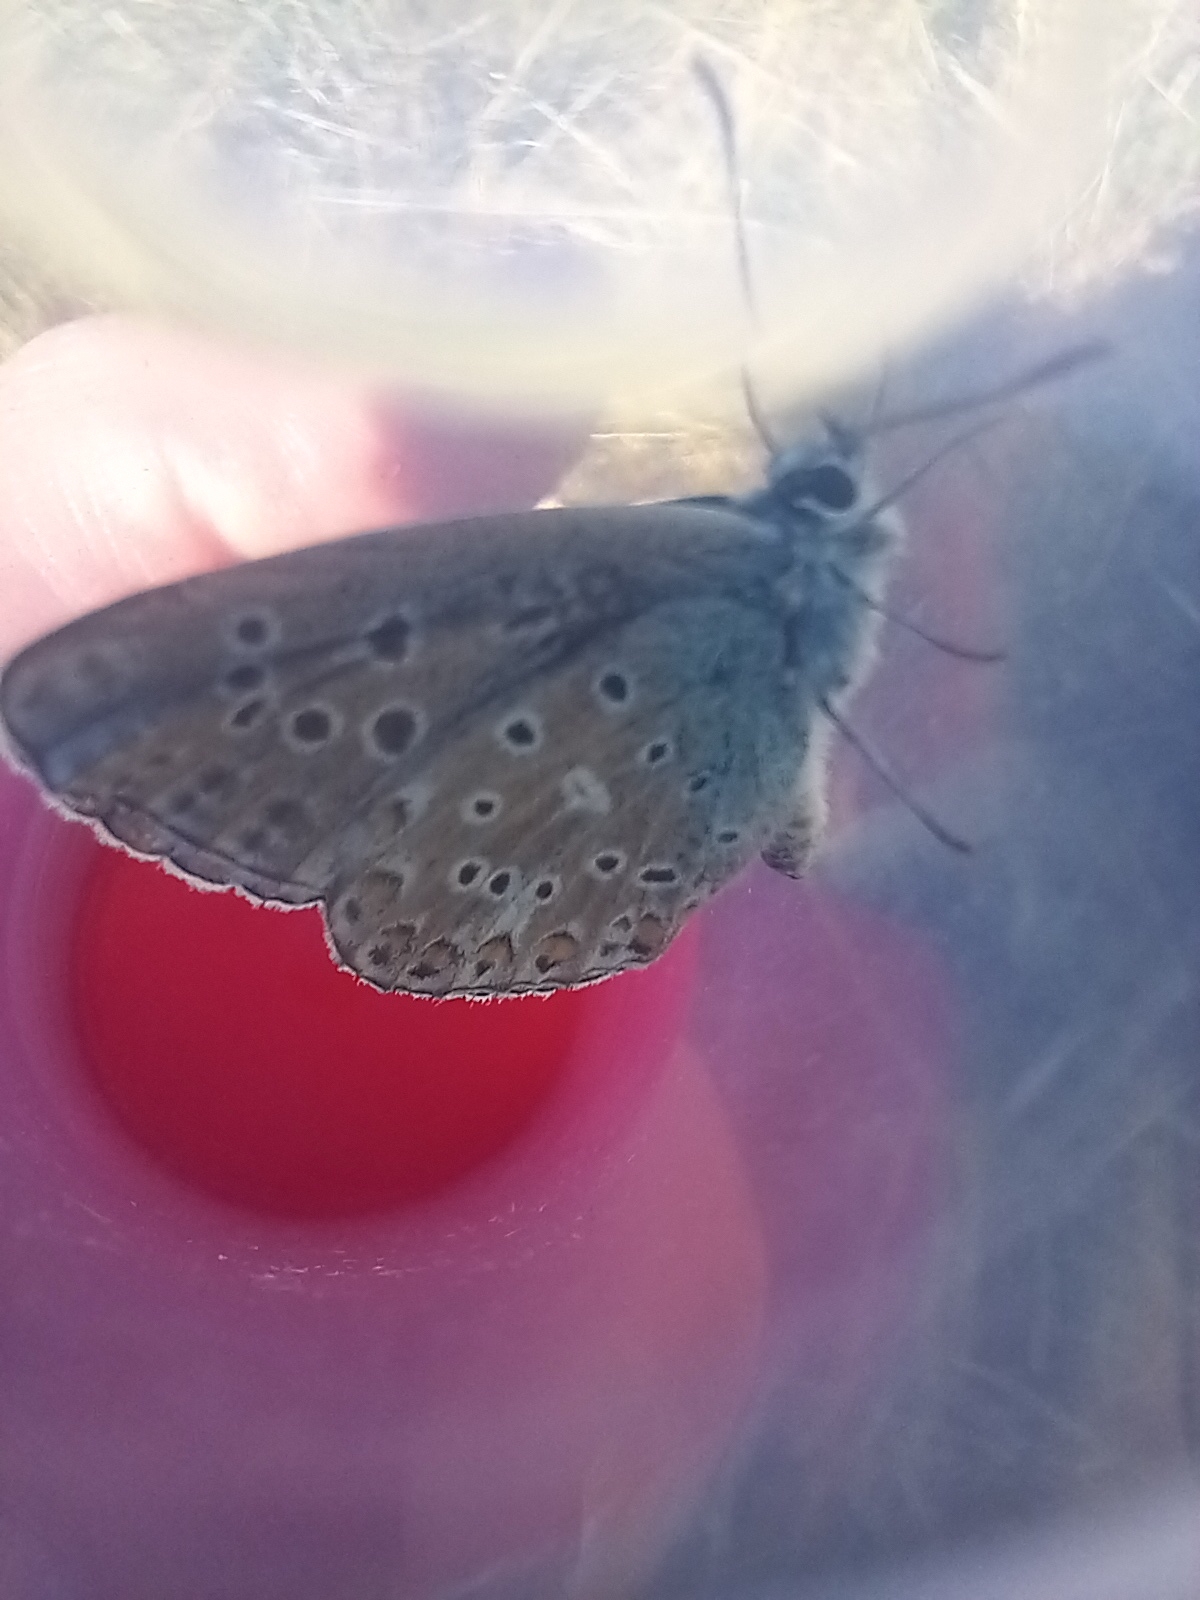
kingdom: Animalia
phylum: Arthropoda
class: Insecta
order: Lepidoptera
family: Lycaenidae
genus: Lysandra
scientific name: Lysandra bellargus
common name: Adonis blue
